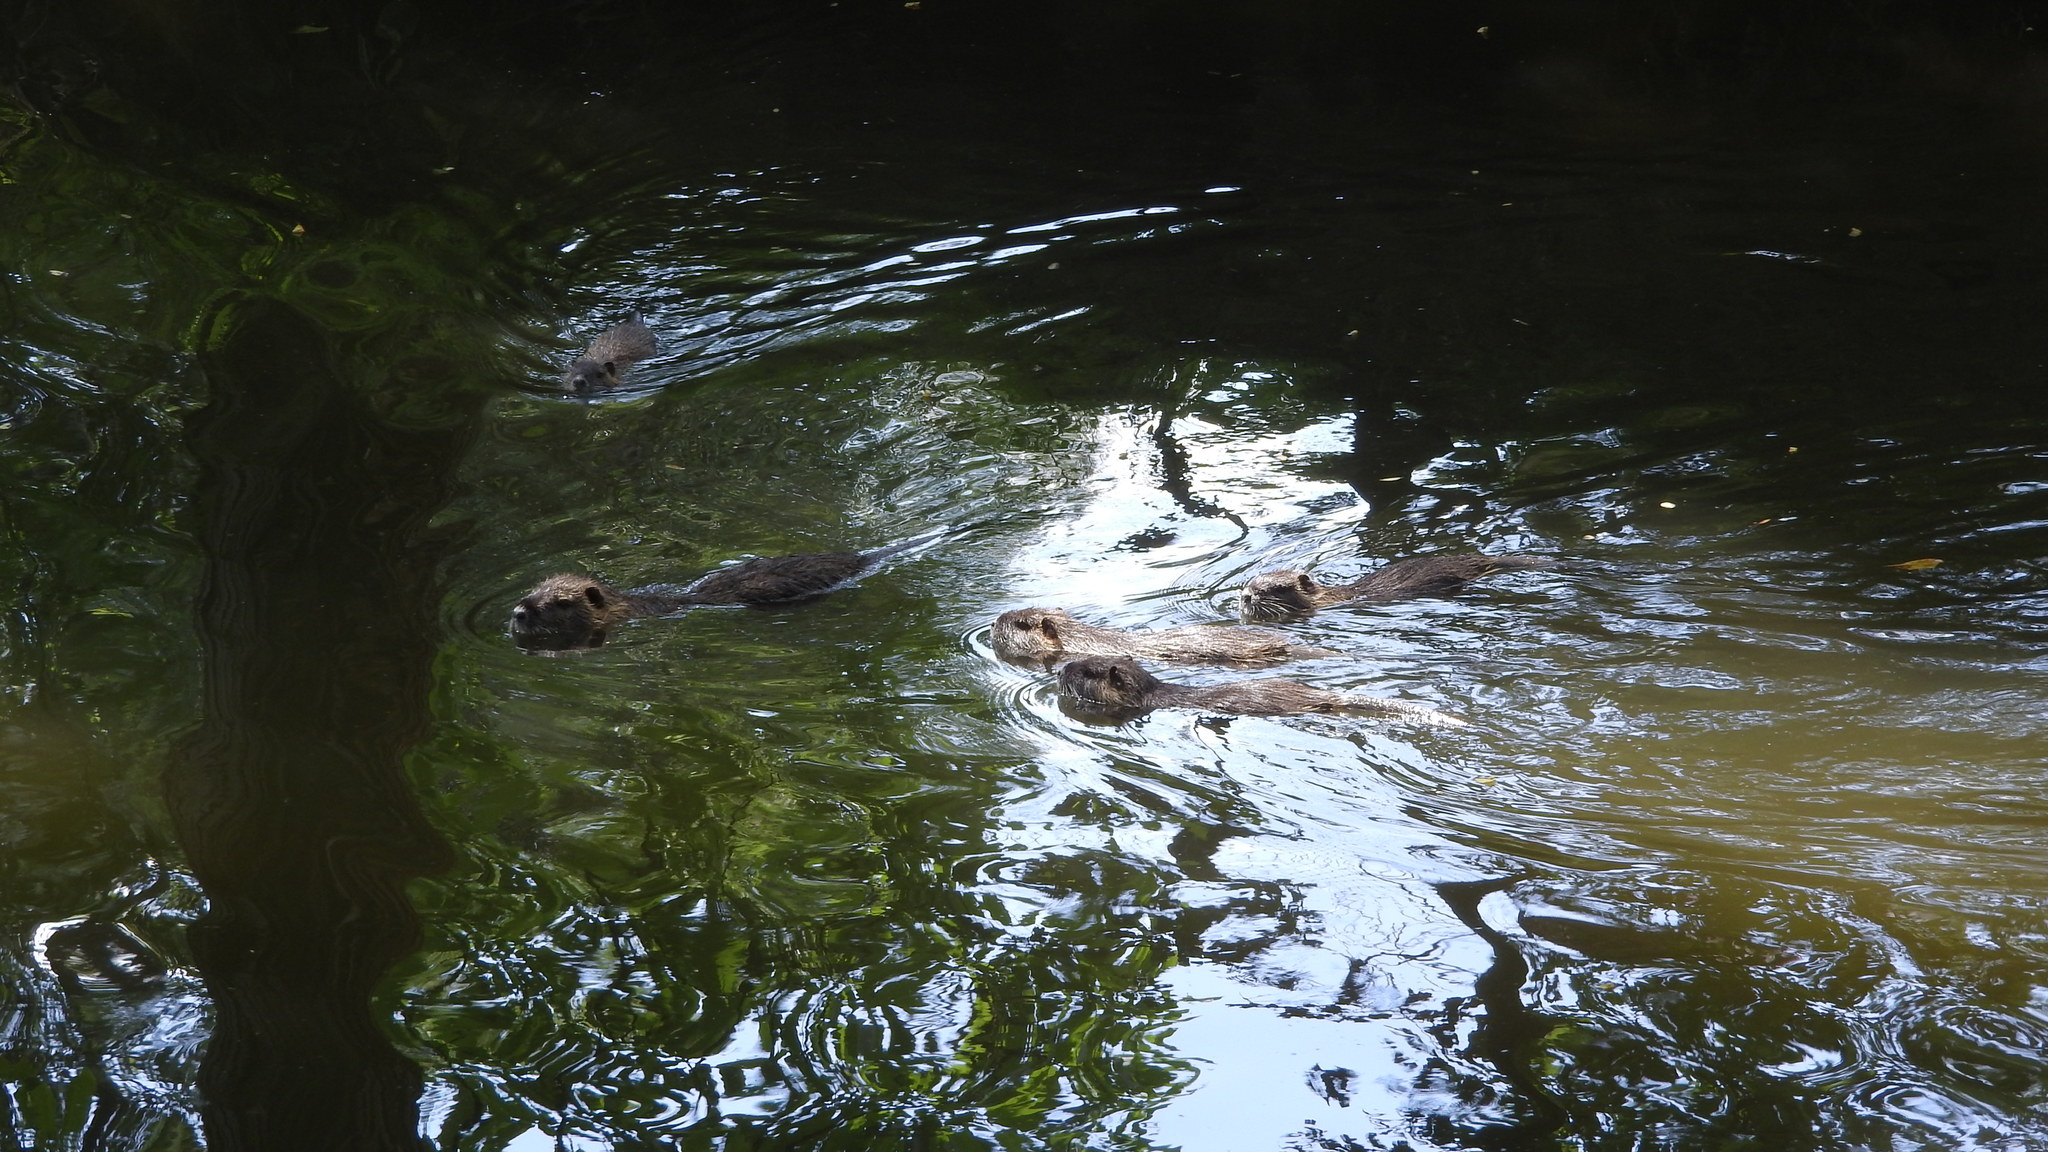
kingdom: Animalia
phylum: Chordata
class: Mammalia
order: Rodentia
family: Myocastoridae
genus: Myocastor
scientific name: Myocastor coypus
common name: Coypu
